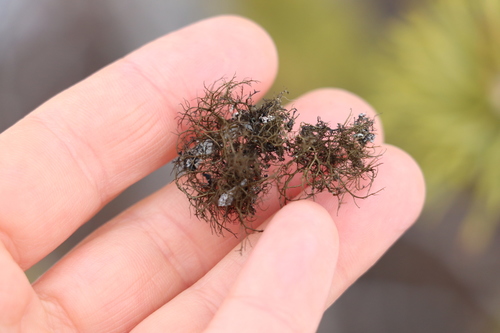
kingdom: Fungi
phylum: Ascomycota
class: Lecanoromycetes
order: Lecanorales
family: Parmeliaceae
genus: Bryoria
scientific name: Bryoria
